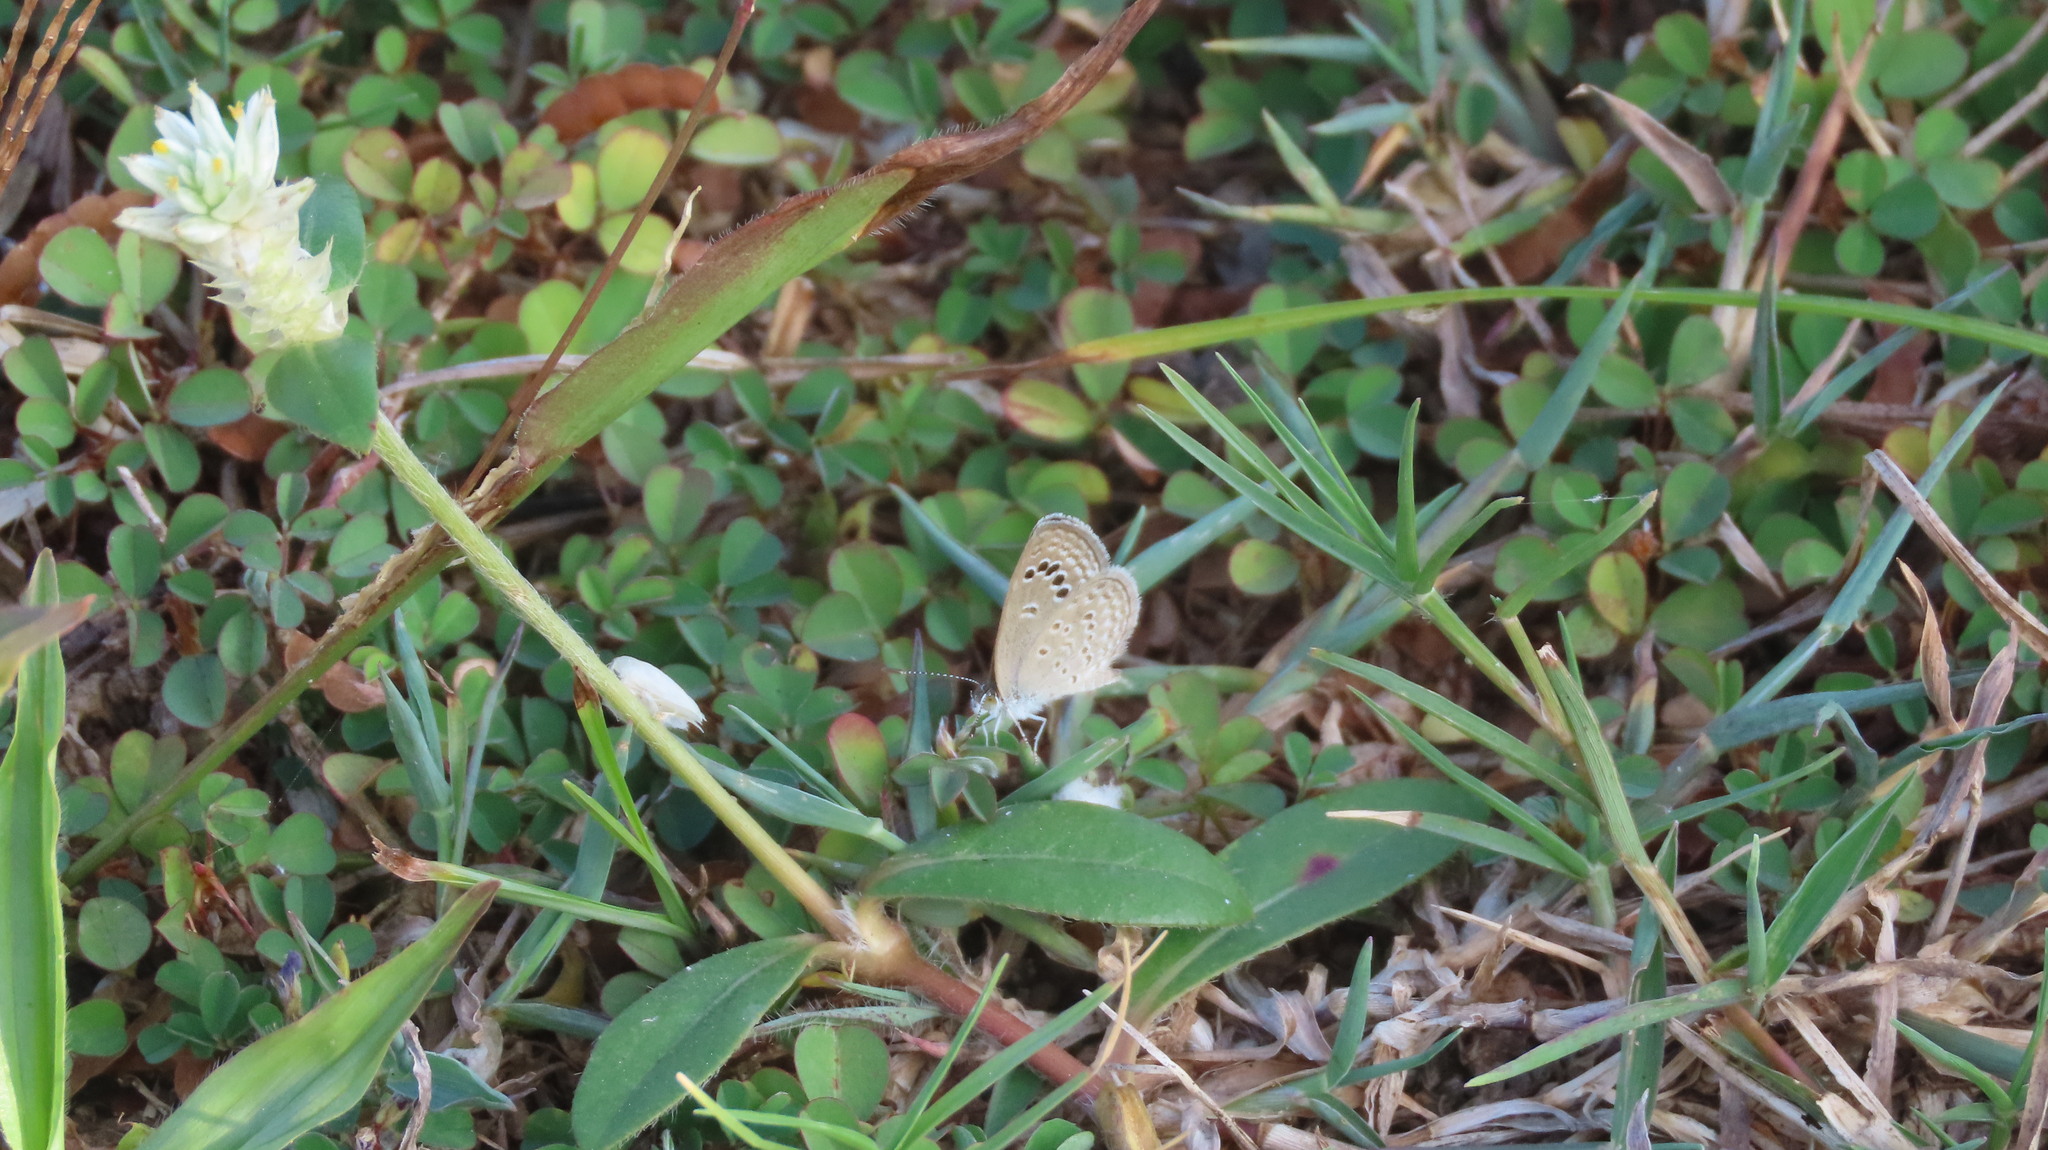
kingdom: Animalia
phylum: Arthropoda
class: Insecta
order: Lepidoptera
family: Lycaenidae
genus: Zizina
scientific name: Zizina otis
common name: Lesser grass blue
